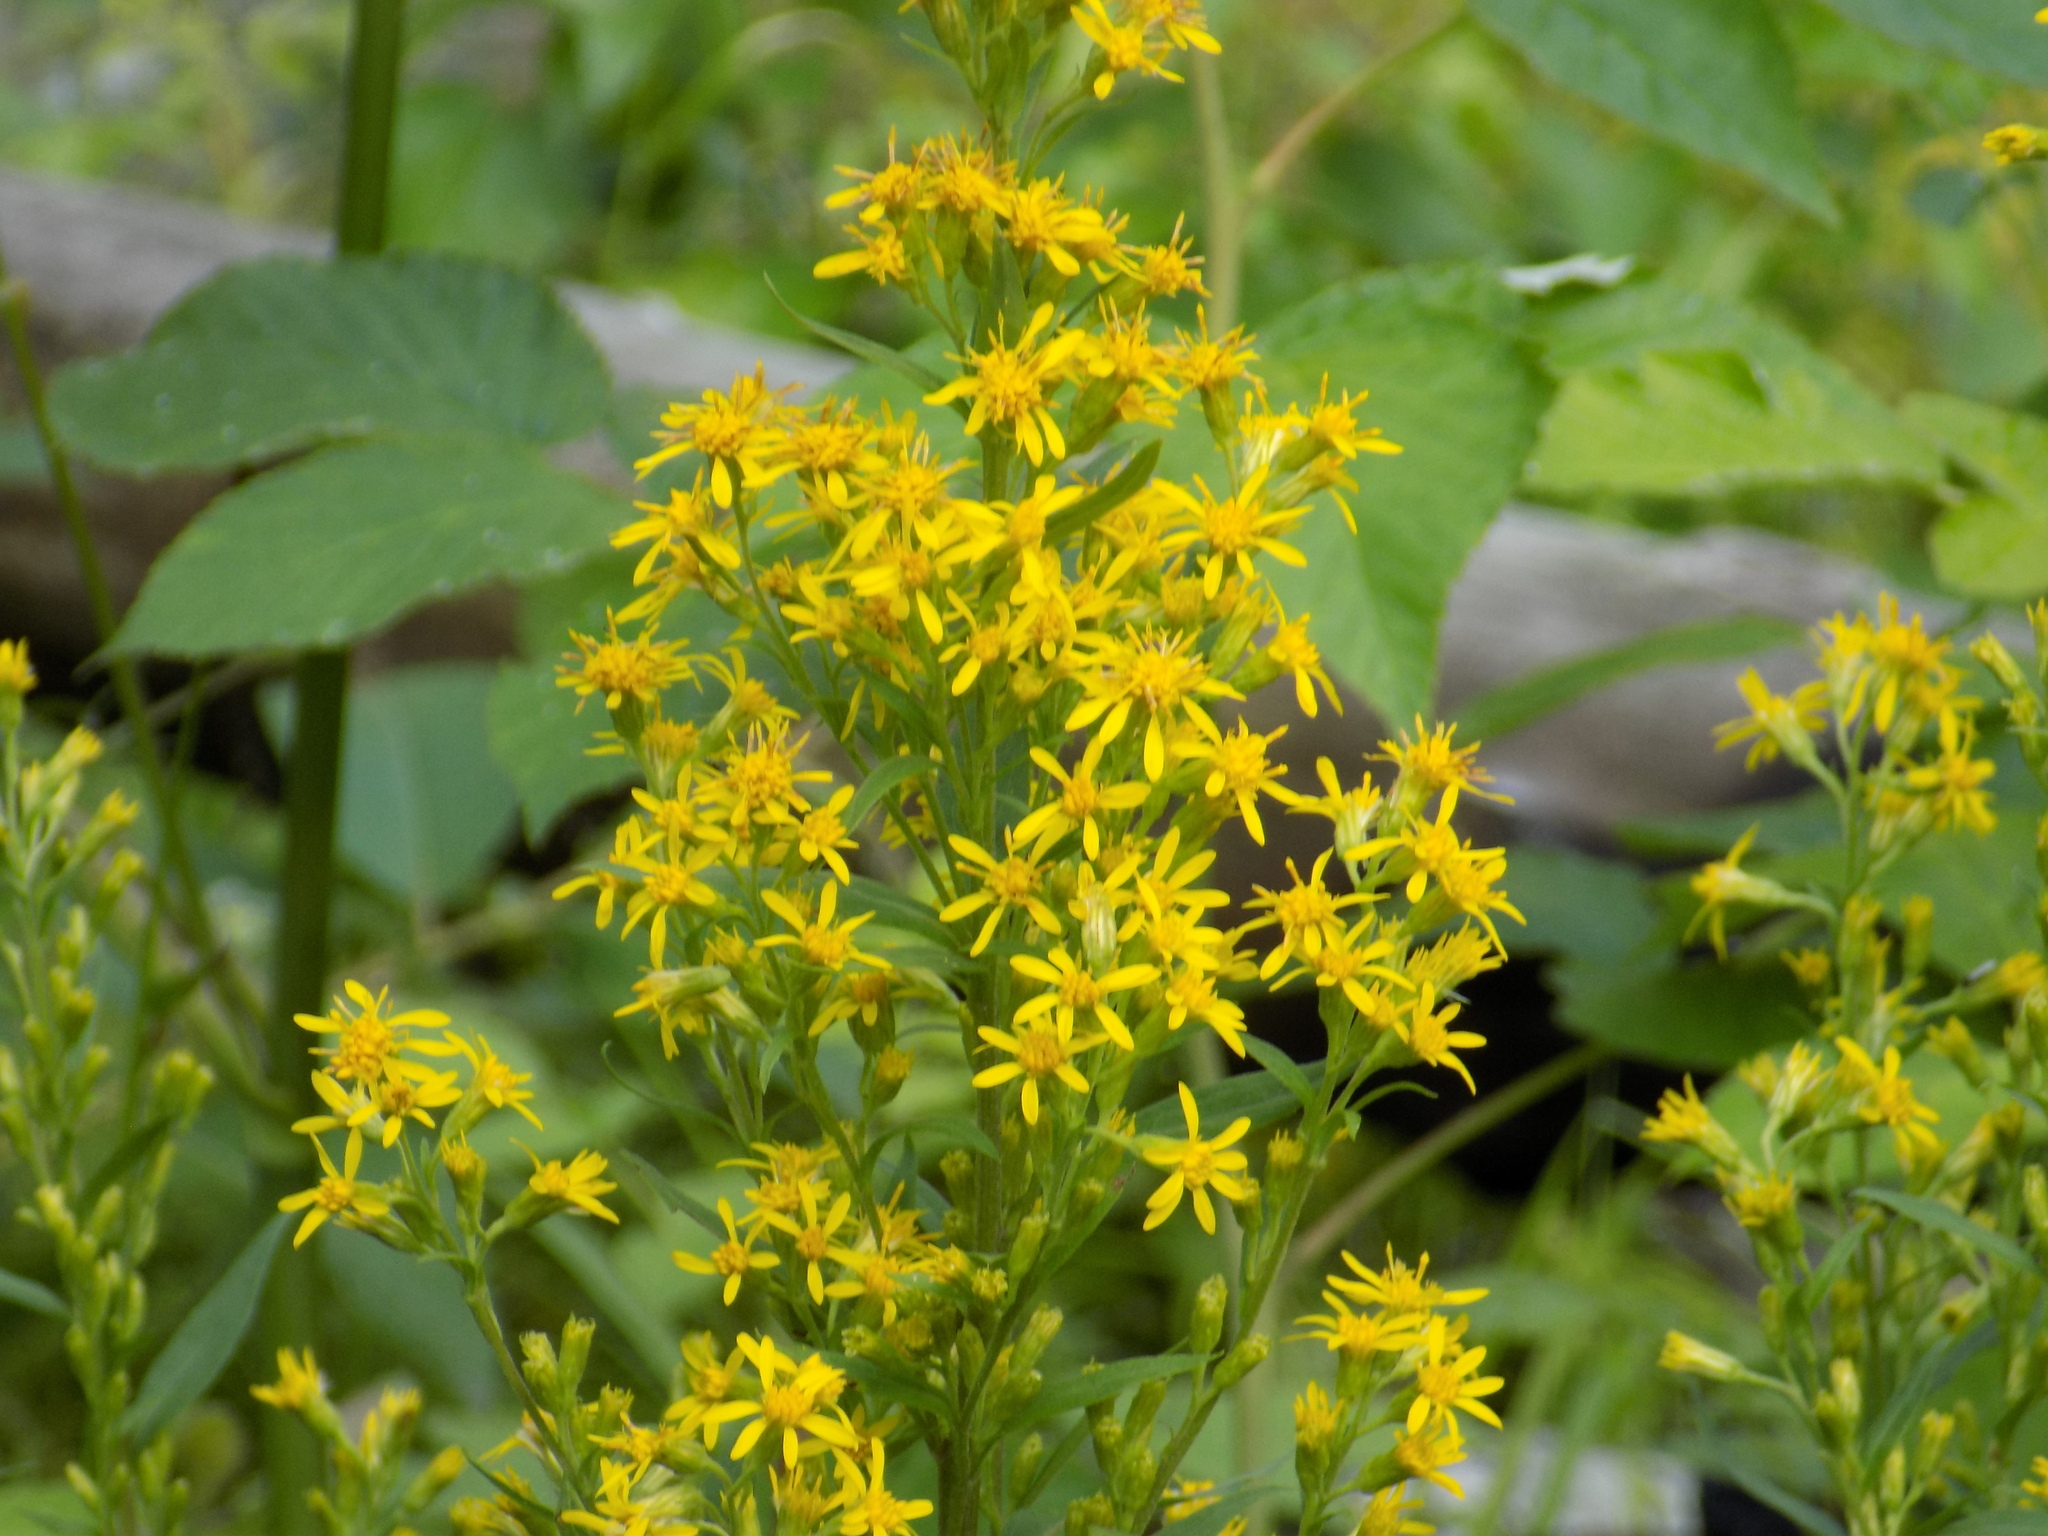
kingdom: Plantae
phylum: Tracheophyta
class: Magnoliopsida
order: Asterales
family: Asteraceae
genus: Solidago
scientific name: Solidago virgaurea
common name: Goldenrod
